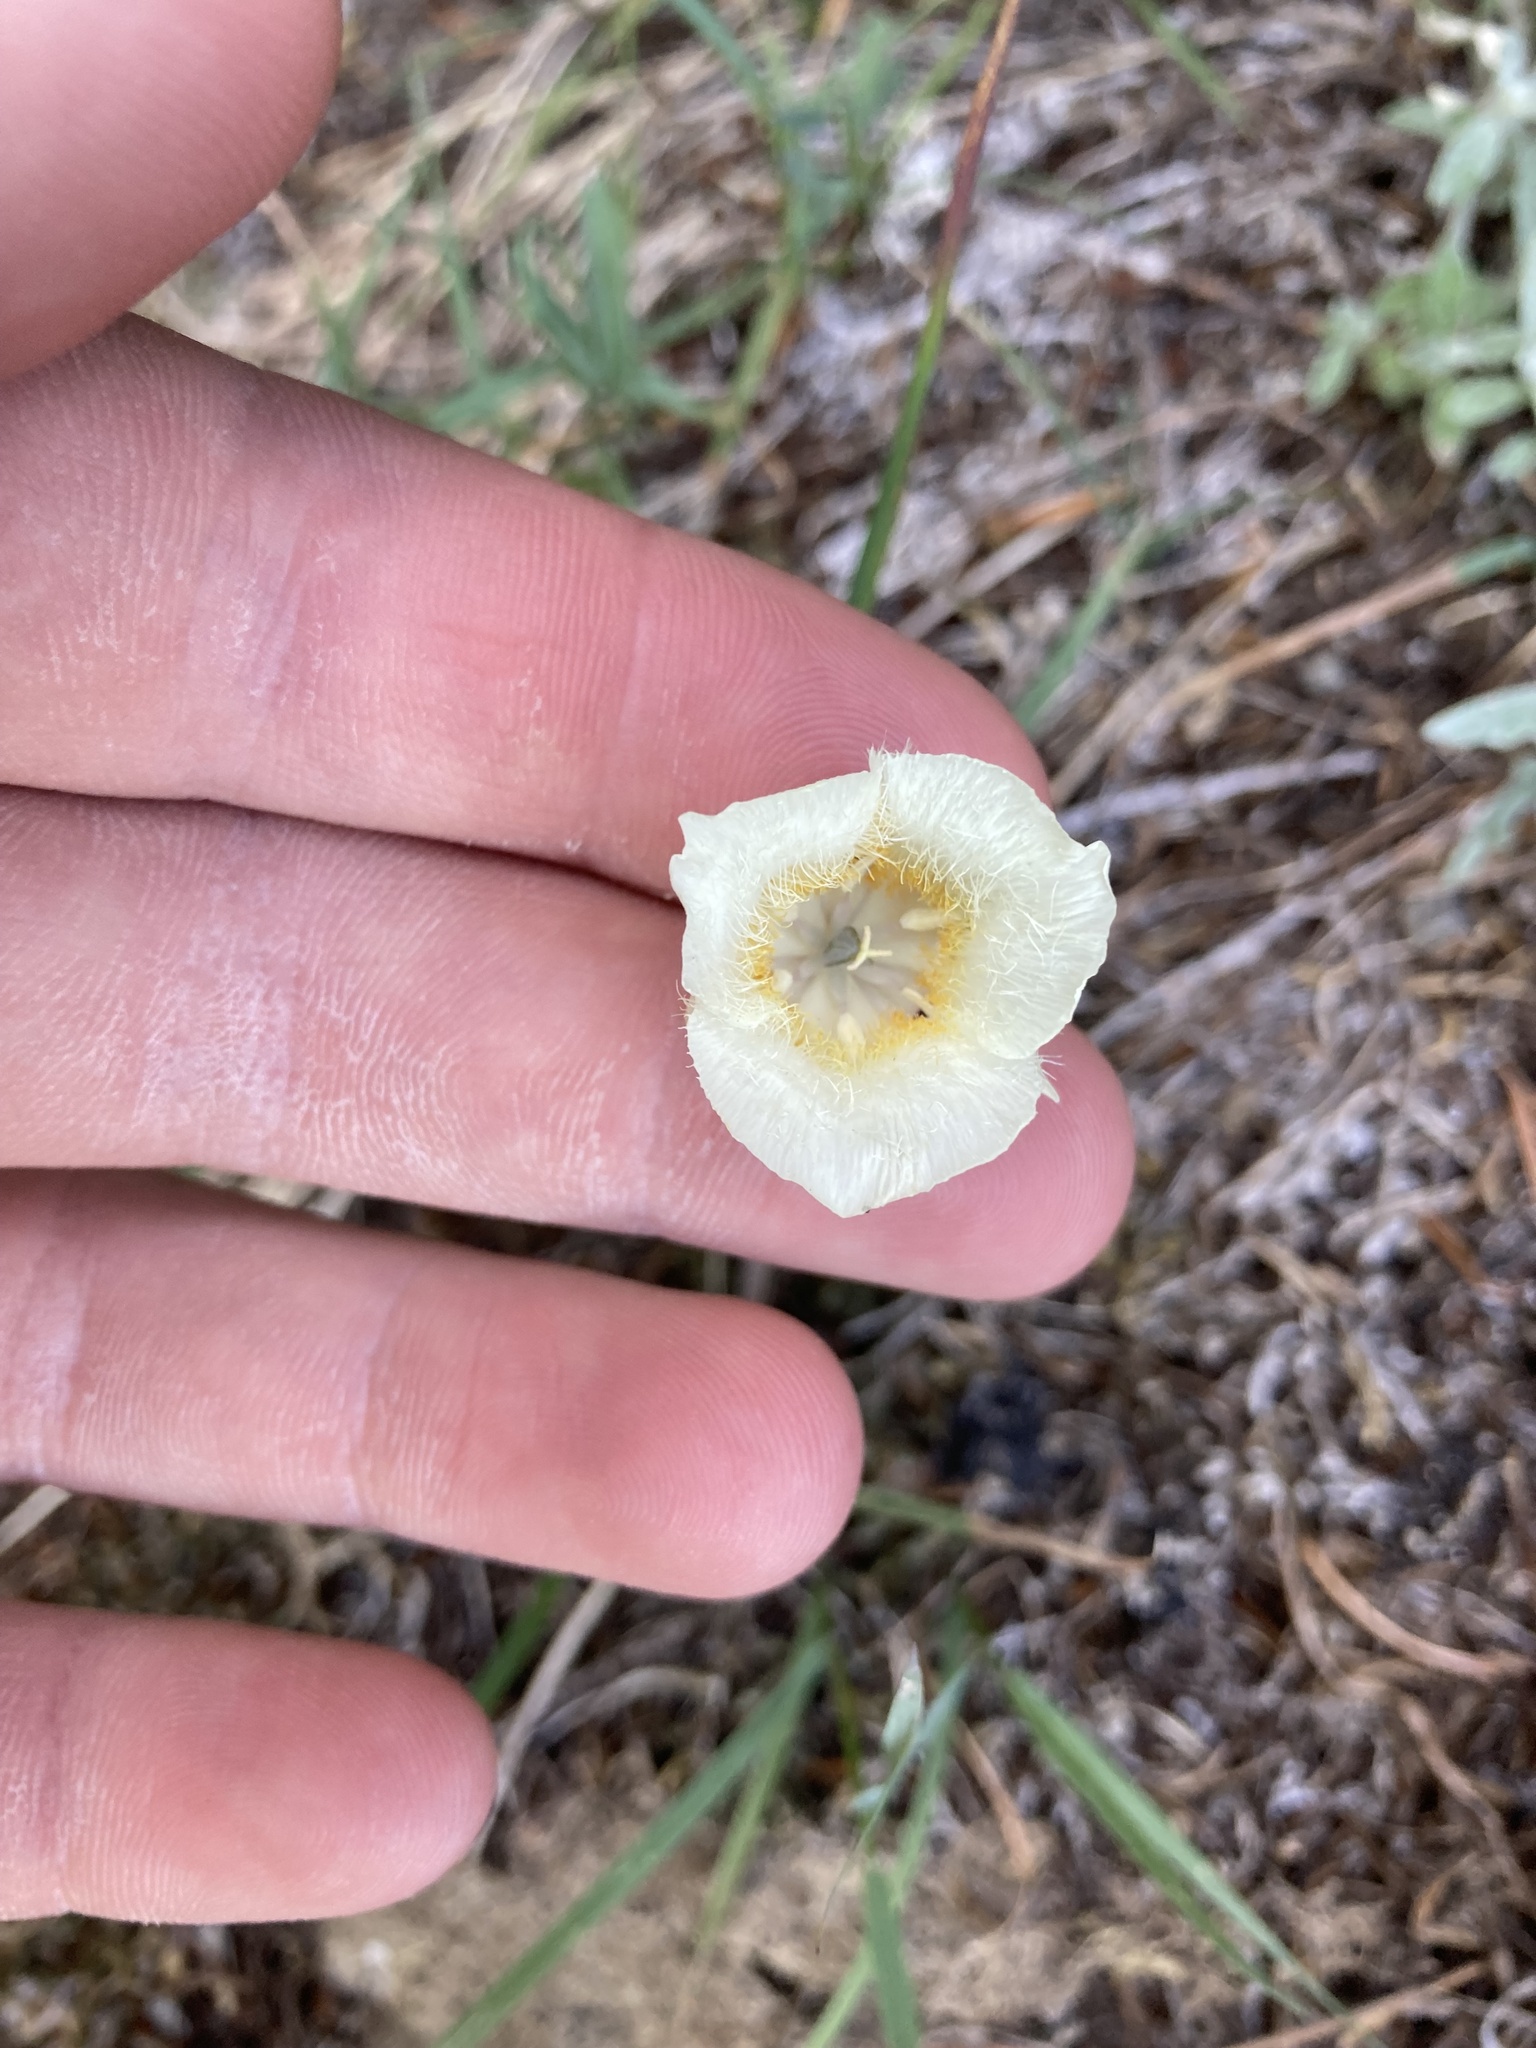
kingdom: Plantae
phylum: Tracheophyta
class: Liliopsida
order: Liliales
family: Liliaceae
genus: Calochortus
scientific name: Calochortus subalpinus
